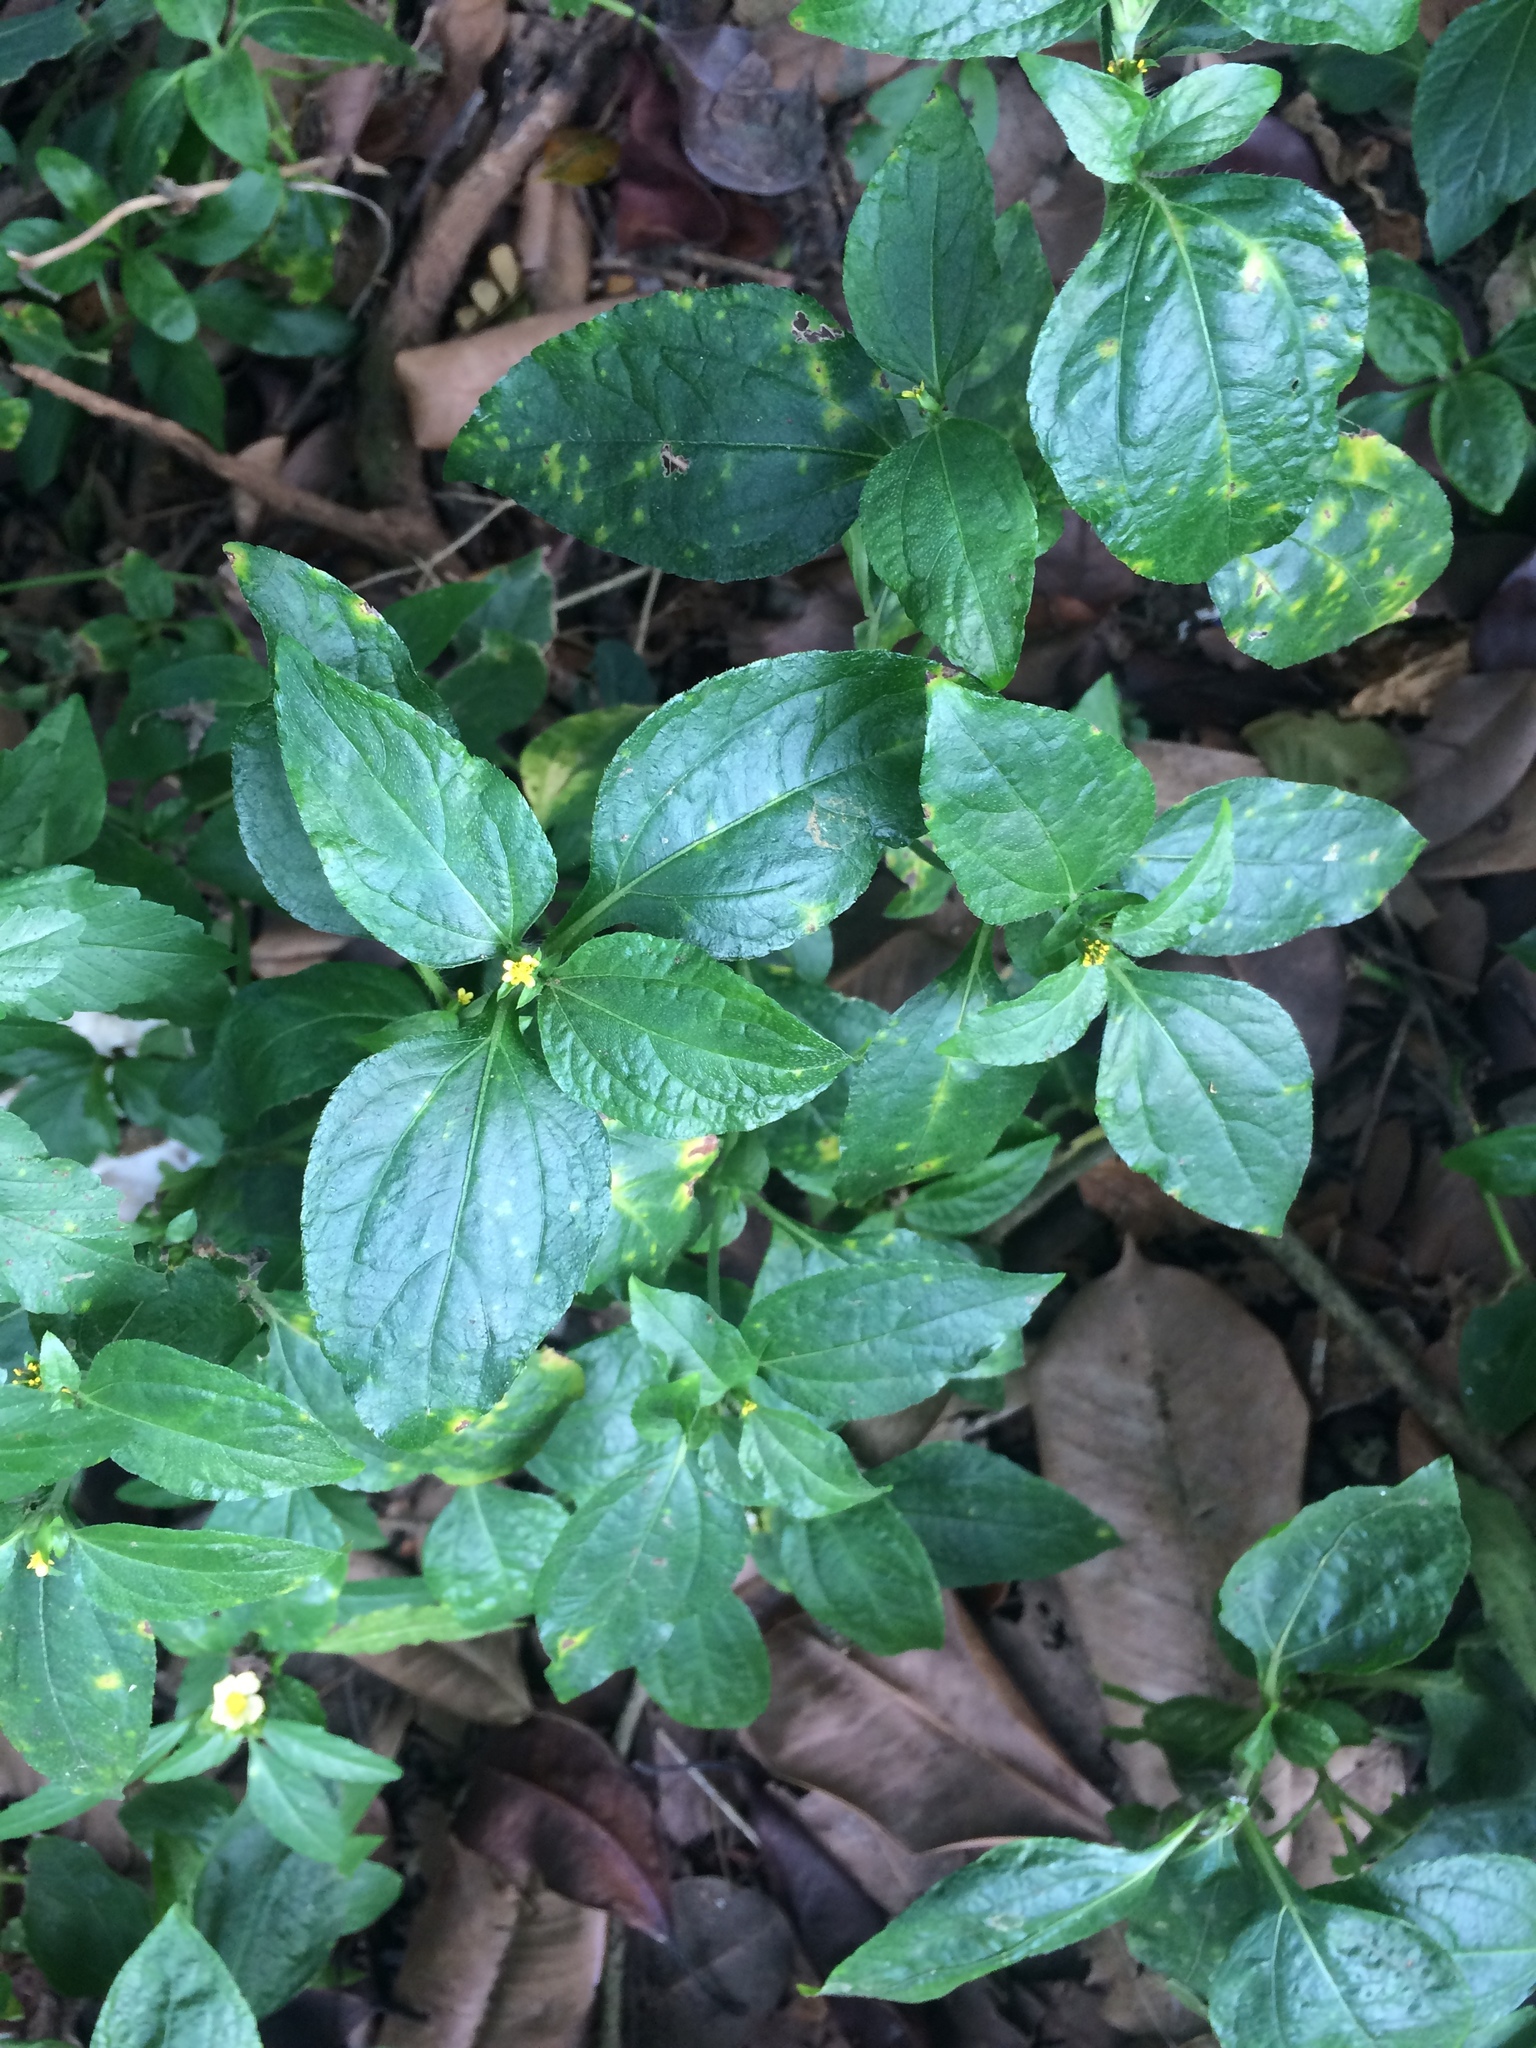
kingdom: Plantae
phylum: Tracheophyta
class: Magnoliopsida
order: Asterales
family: Asteraceae
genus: Synedrella
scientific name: Synedrella nodiflora
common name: Nodeweed
